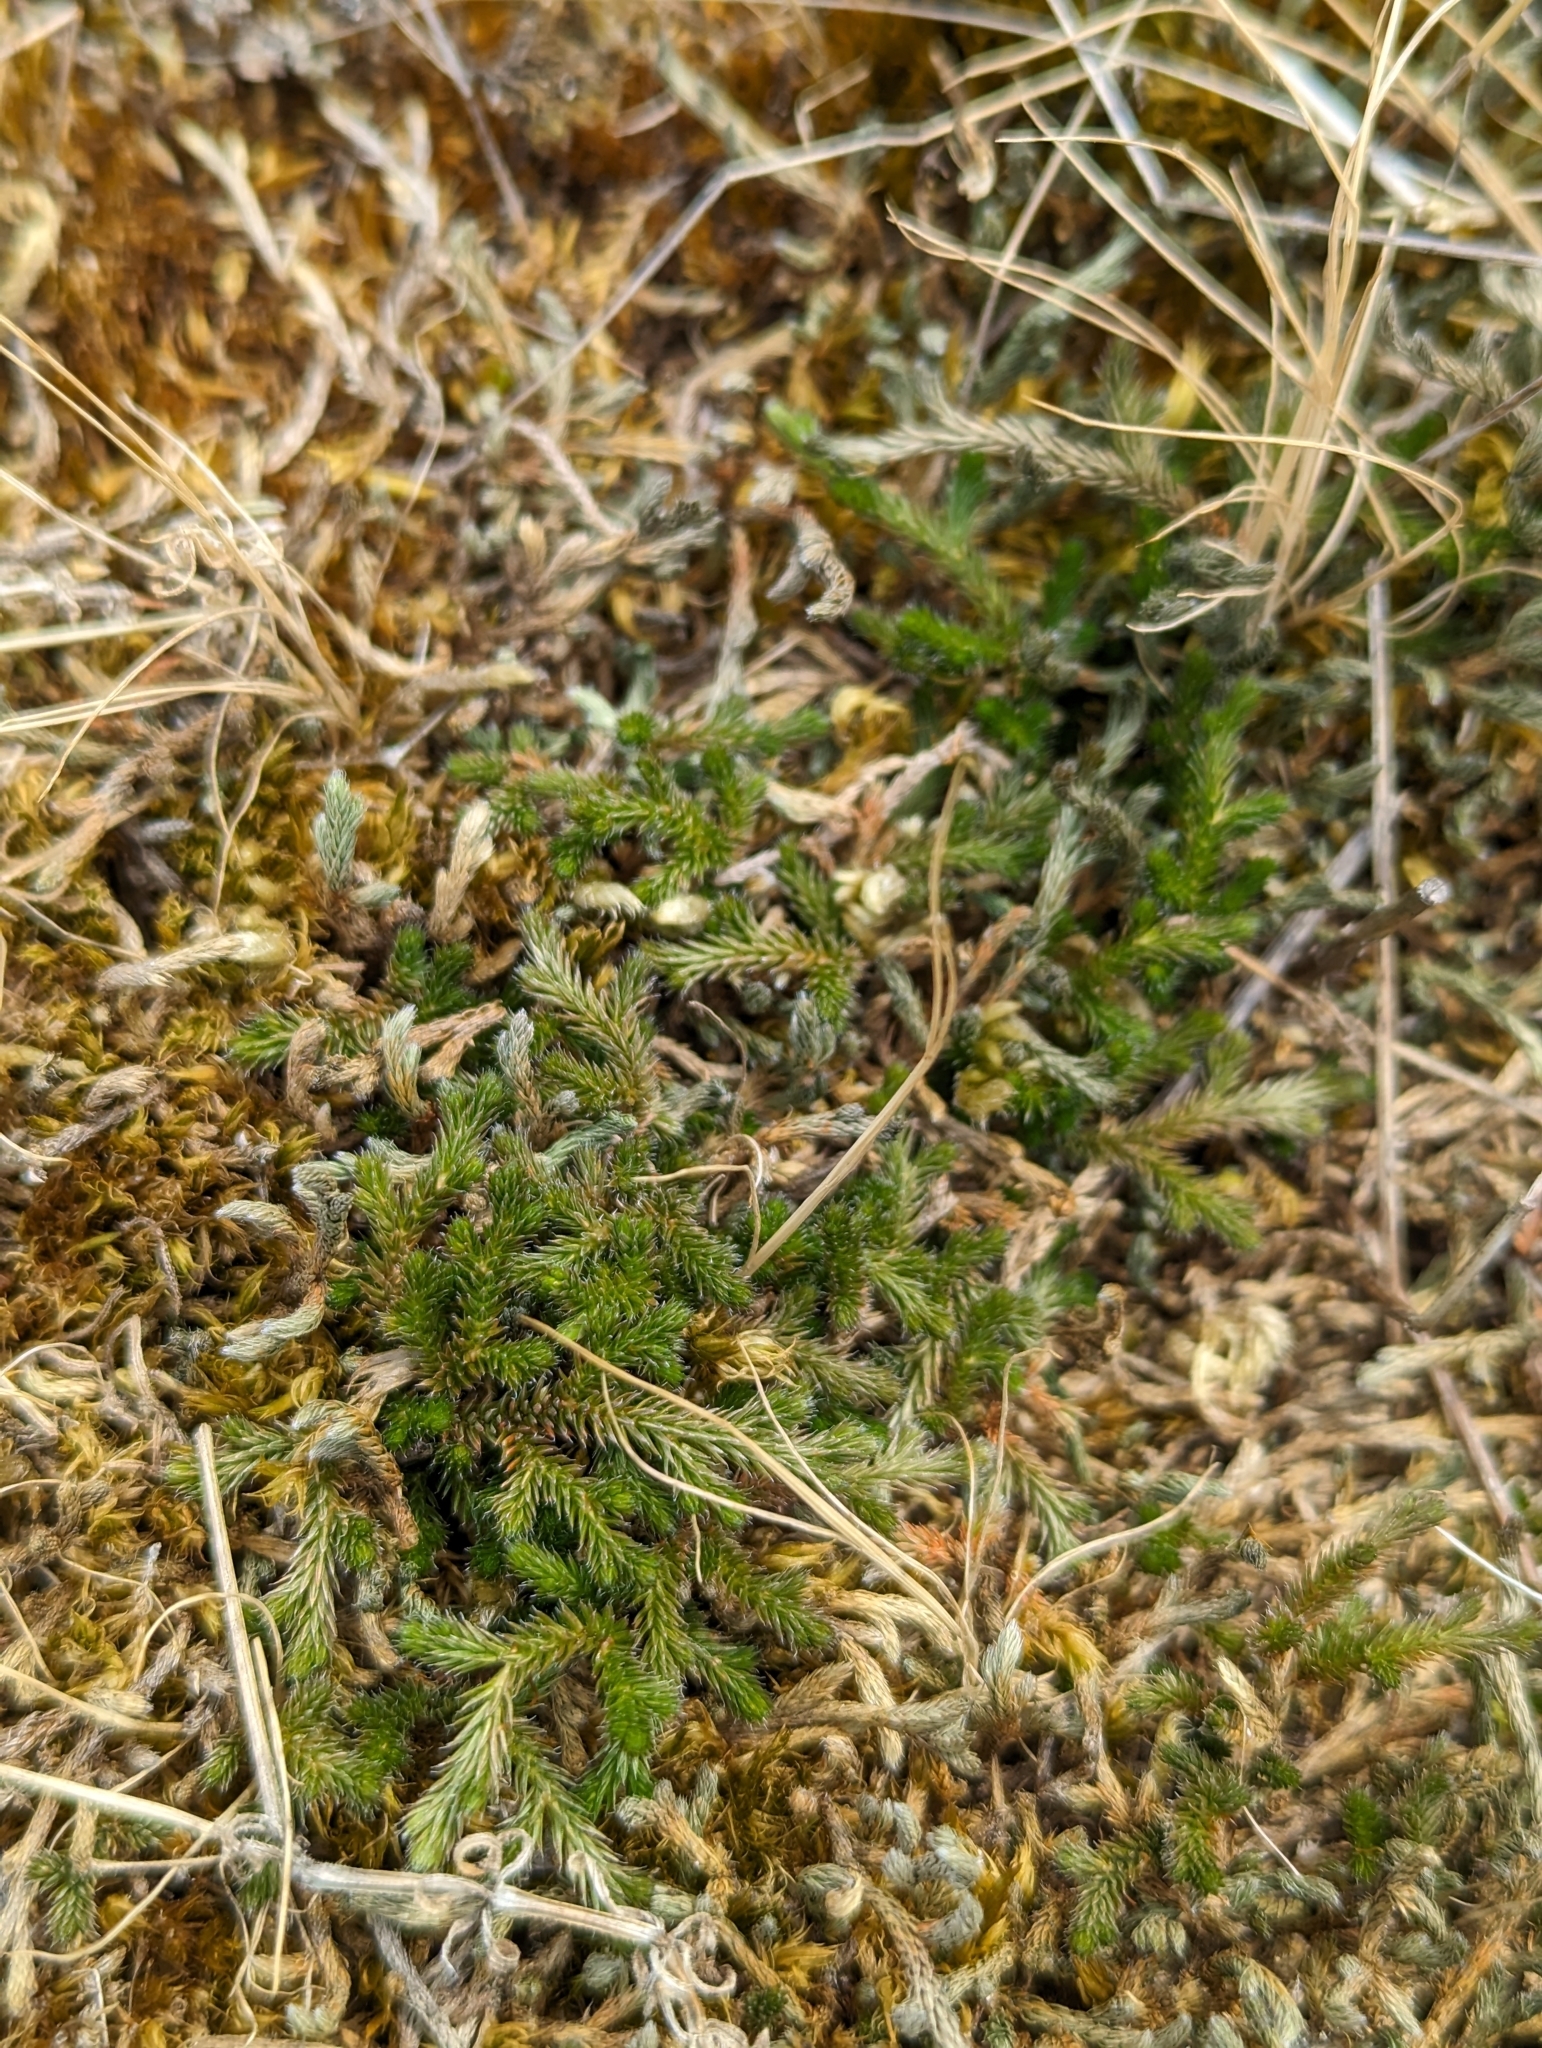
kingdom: Plantae
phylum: Tracheophyta
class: Lycopodiopsida
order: Selaginellales
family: Selaginellaceae
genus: Selaginella
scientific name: Selaginella wallacei
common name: Wallace's selaginella
